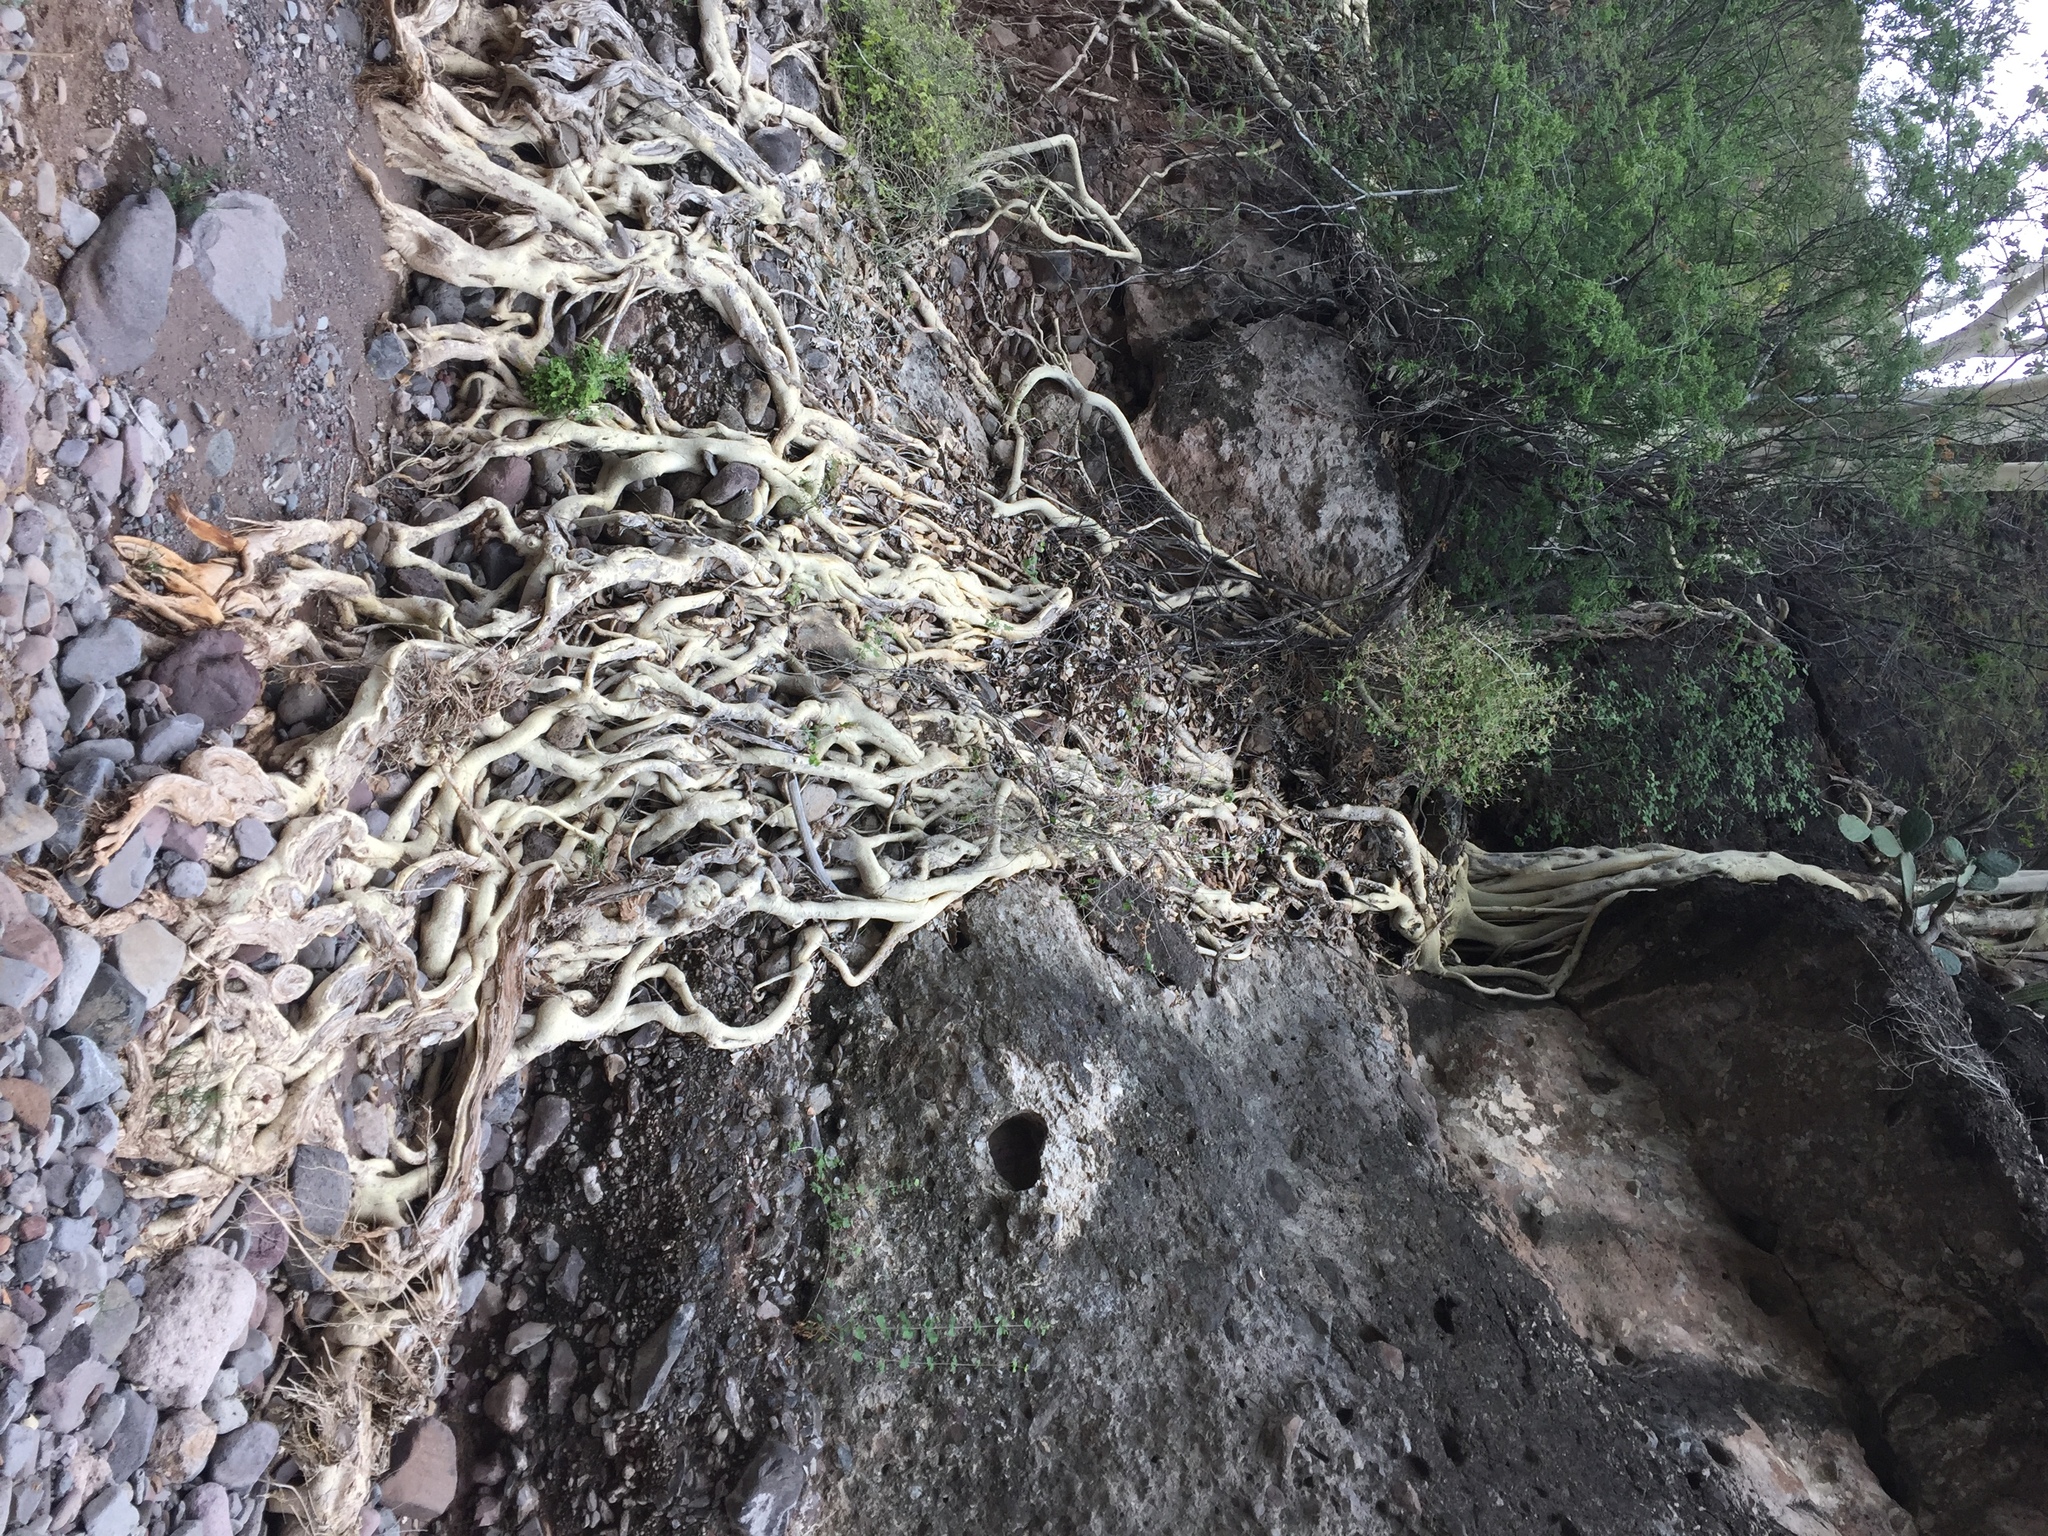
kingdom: Plantae
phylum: Tracheophyta
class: Magnoliopsida
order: Rosales
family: Moraceae
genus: Ficus
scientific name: Ficus petiolaris
